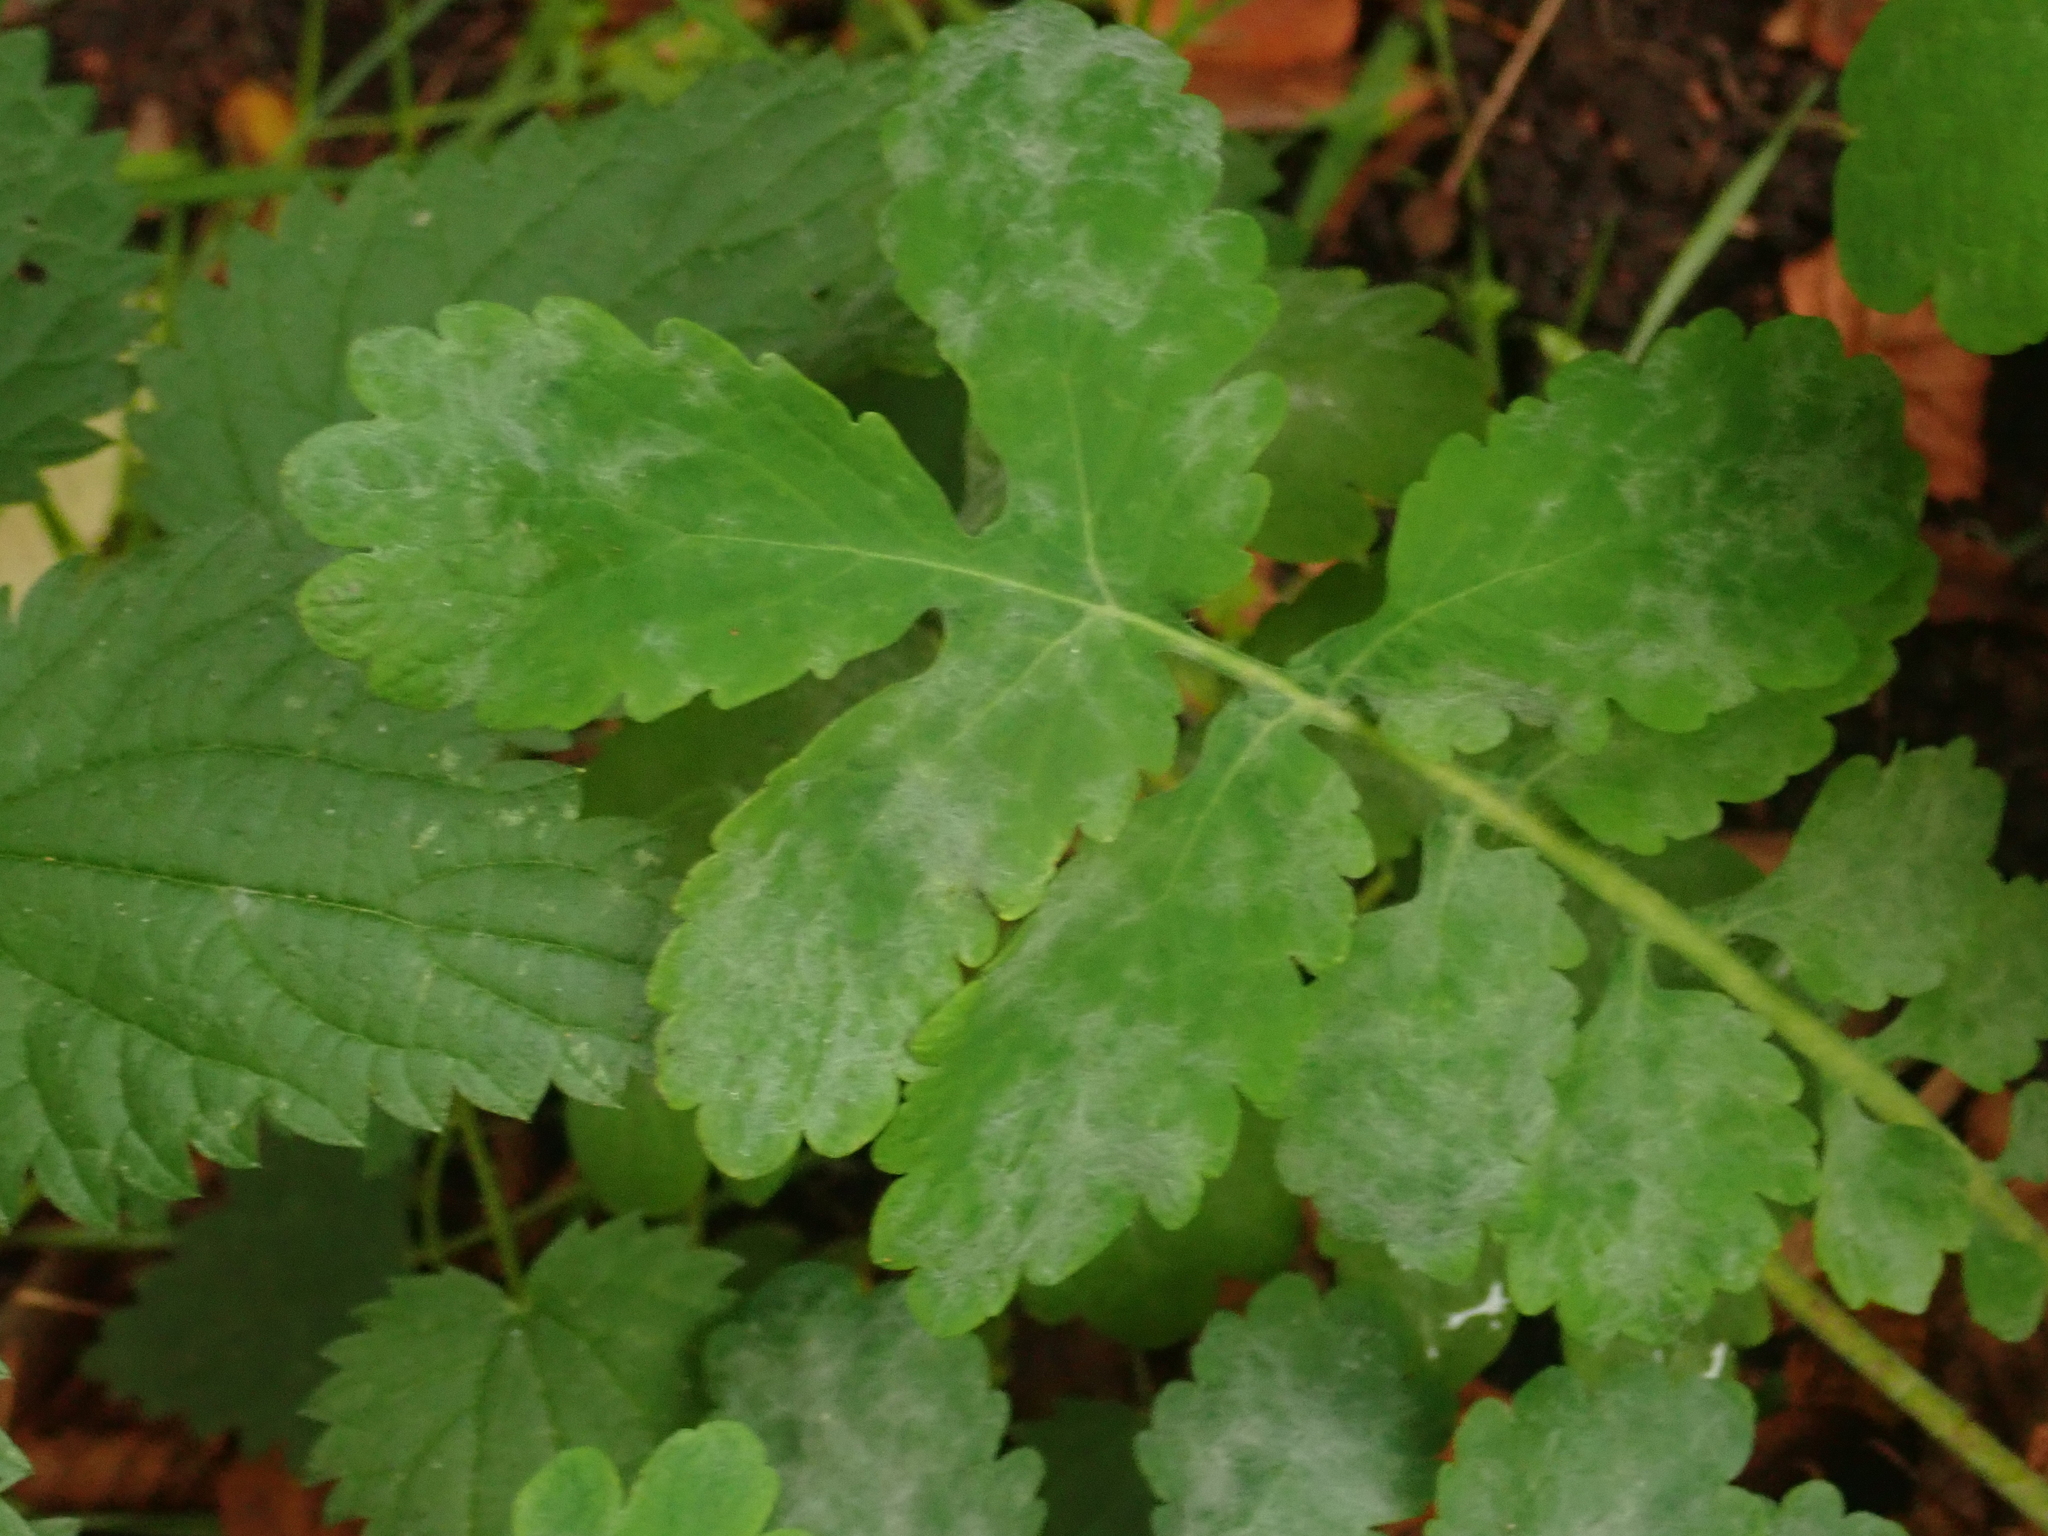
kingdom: Fungi
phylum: Ascomycota
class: Leotiomycetes
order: Helotiales
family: Erysiphaceae
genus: Erysiphe
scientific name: Erysiphe macleayae
